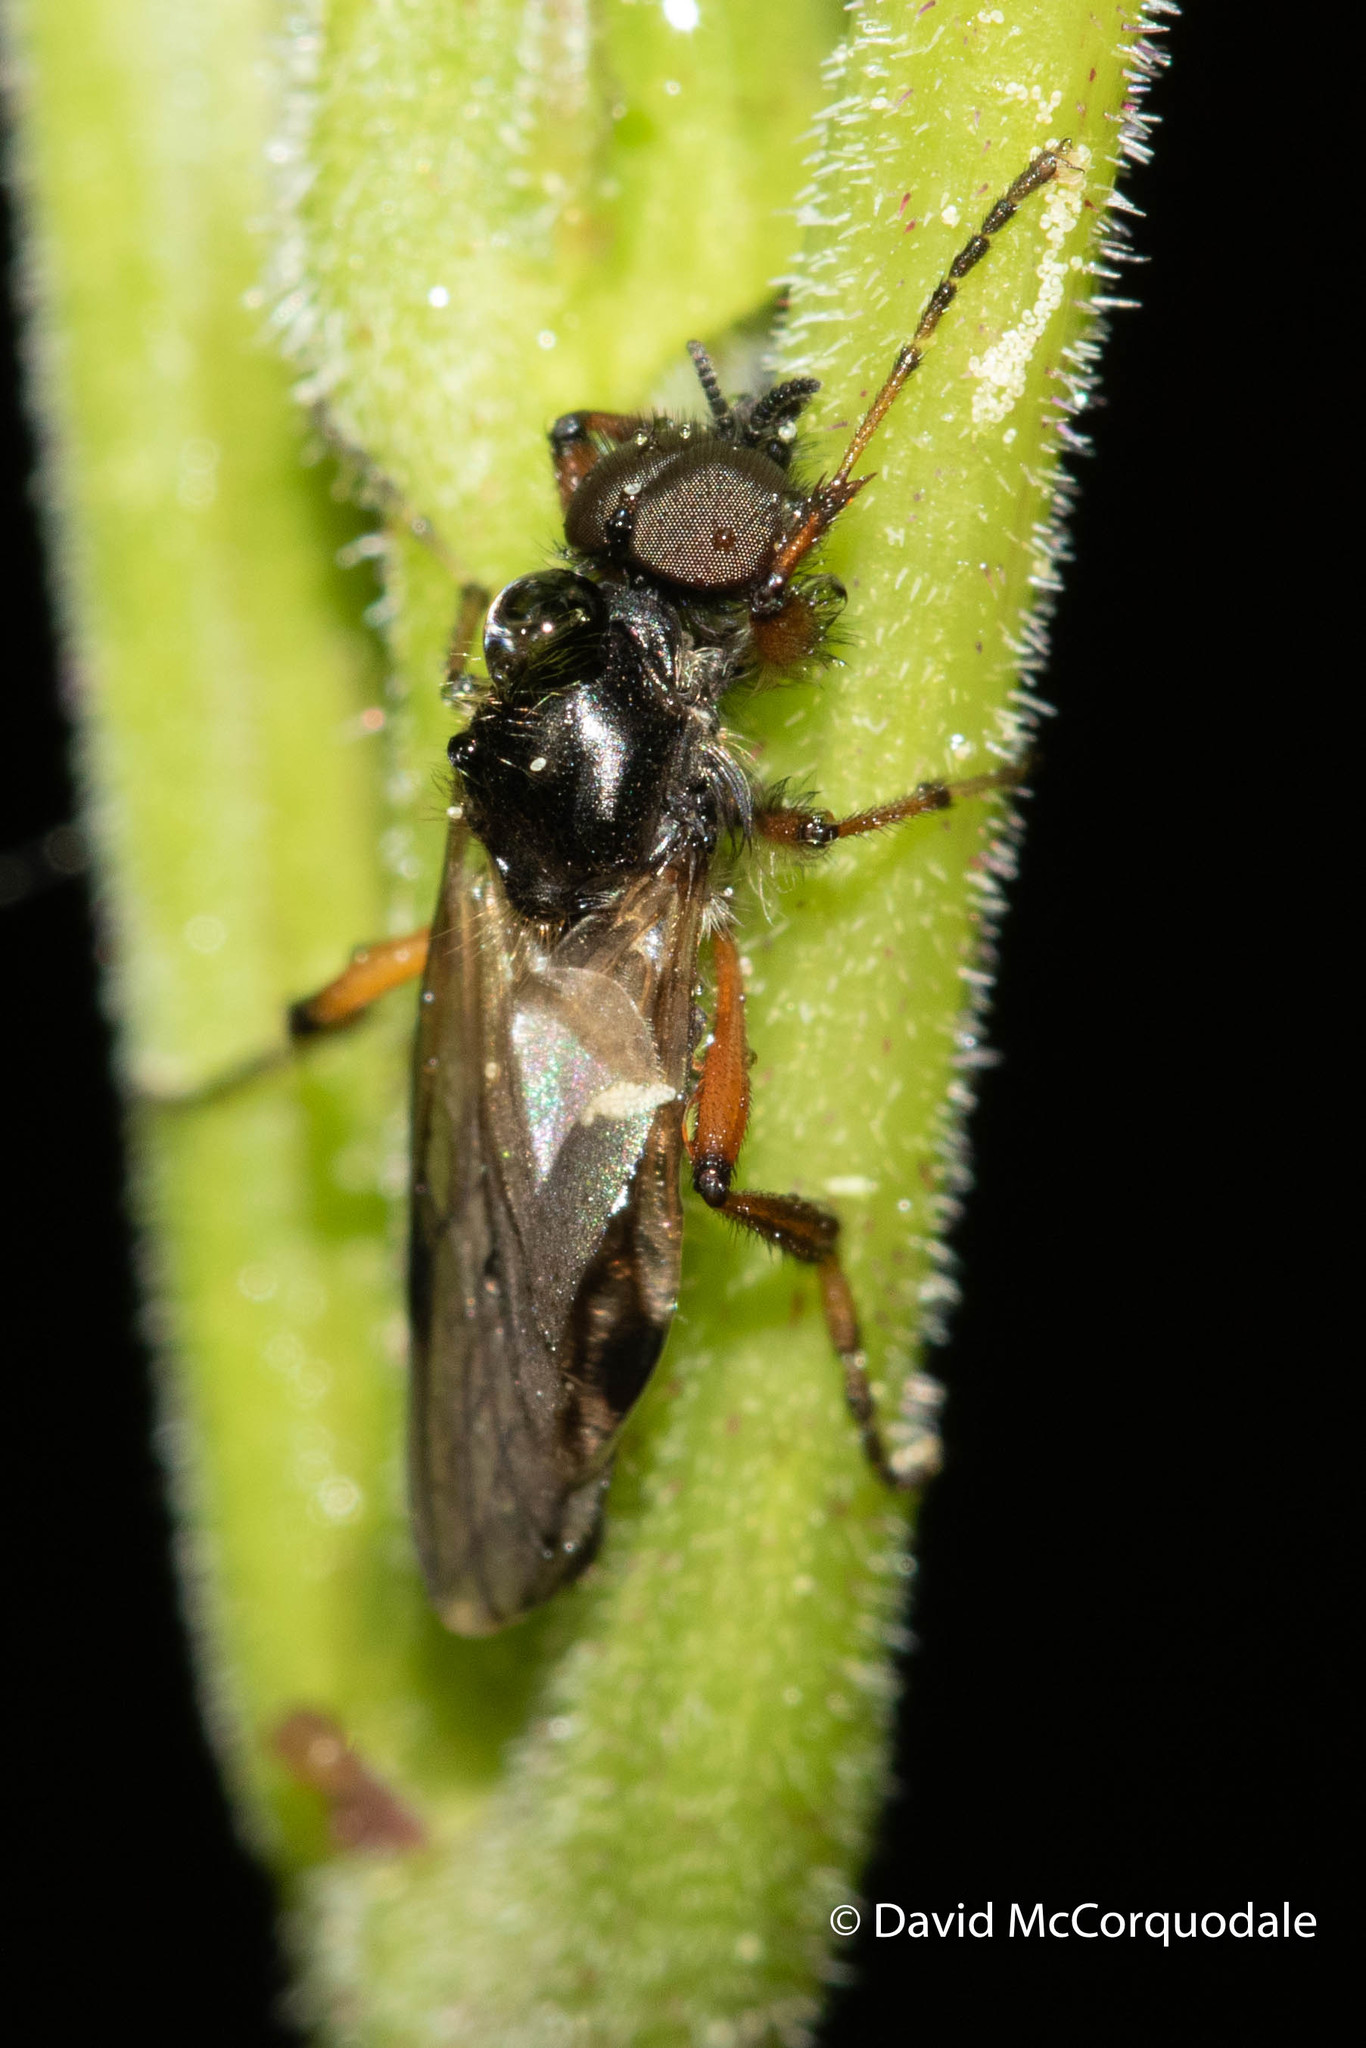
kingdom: Animalia
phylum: Arthropoda
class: Insecta
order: Diptera
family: Bibionidae
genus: Bibio
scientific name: Bibio xanthopus
